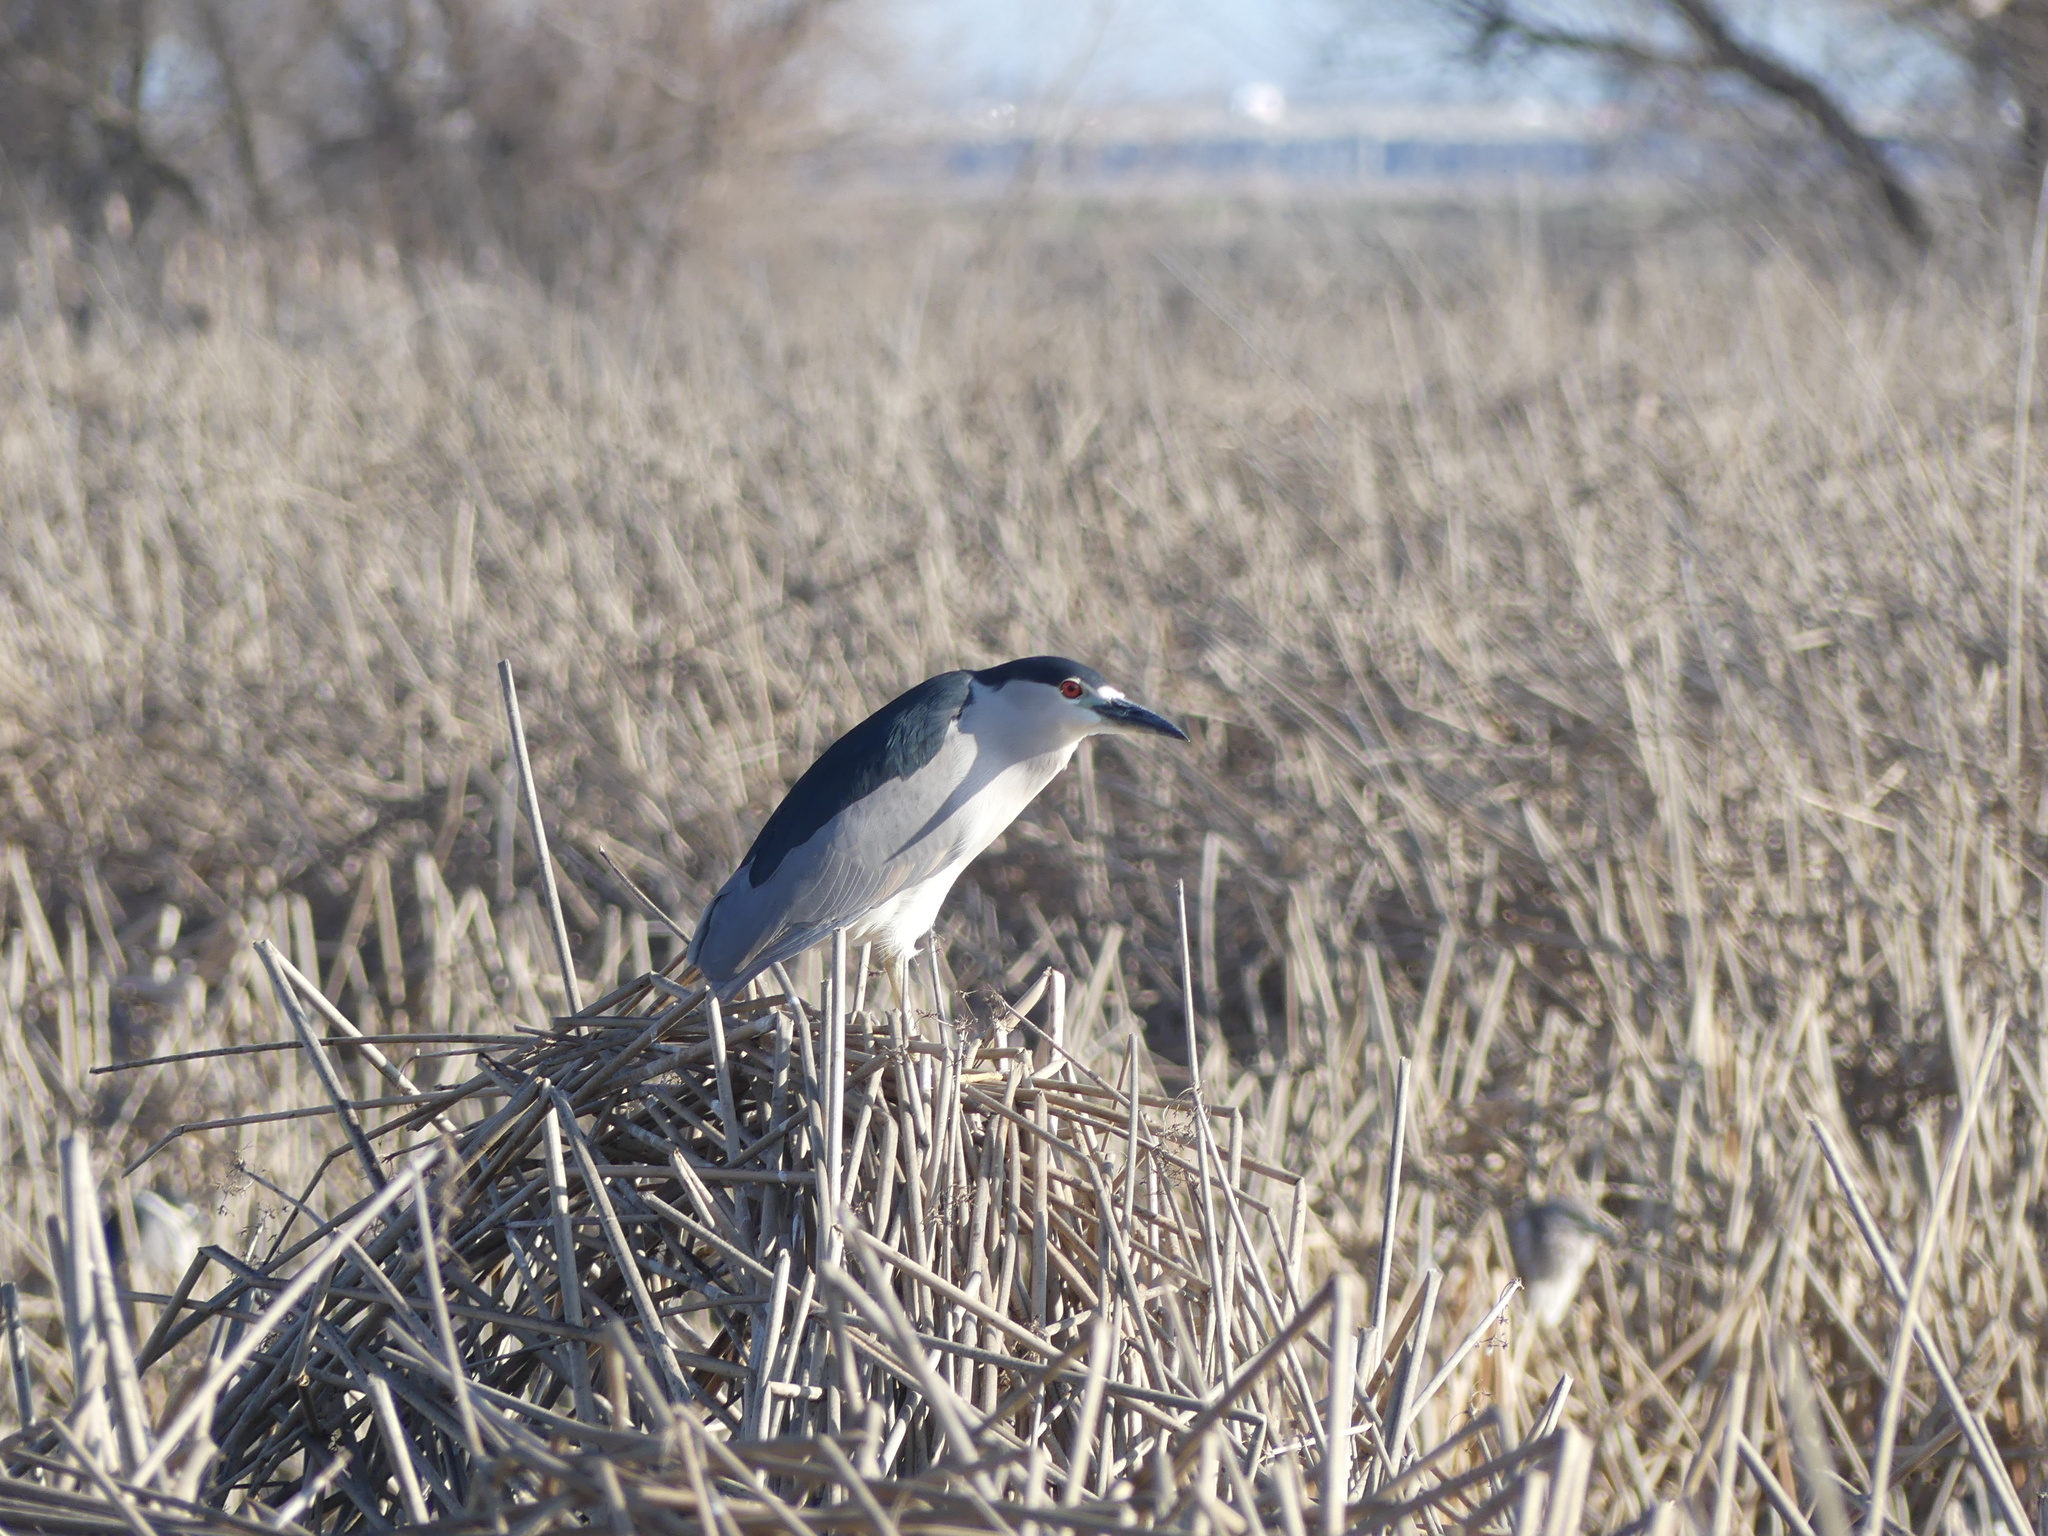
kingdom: Animalia
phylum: Chordata
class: Aves
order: Pelecaniformes
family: Ardeidae
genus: Nycticorax
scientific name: Nycticorax nycticorax
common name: Black-crowned night heron
